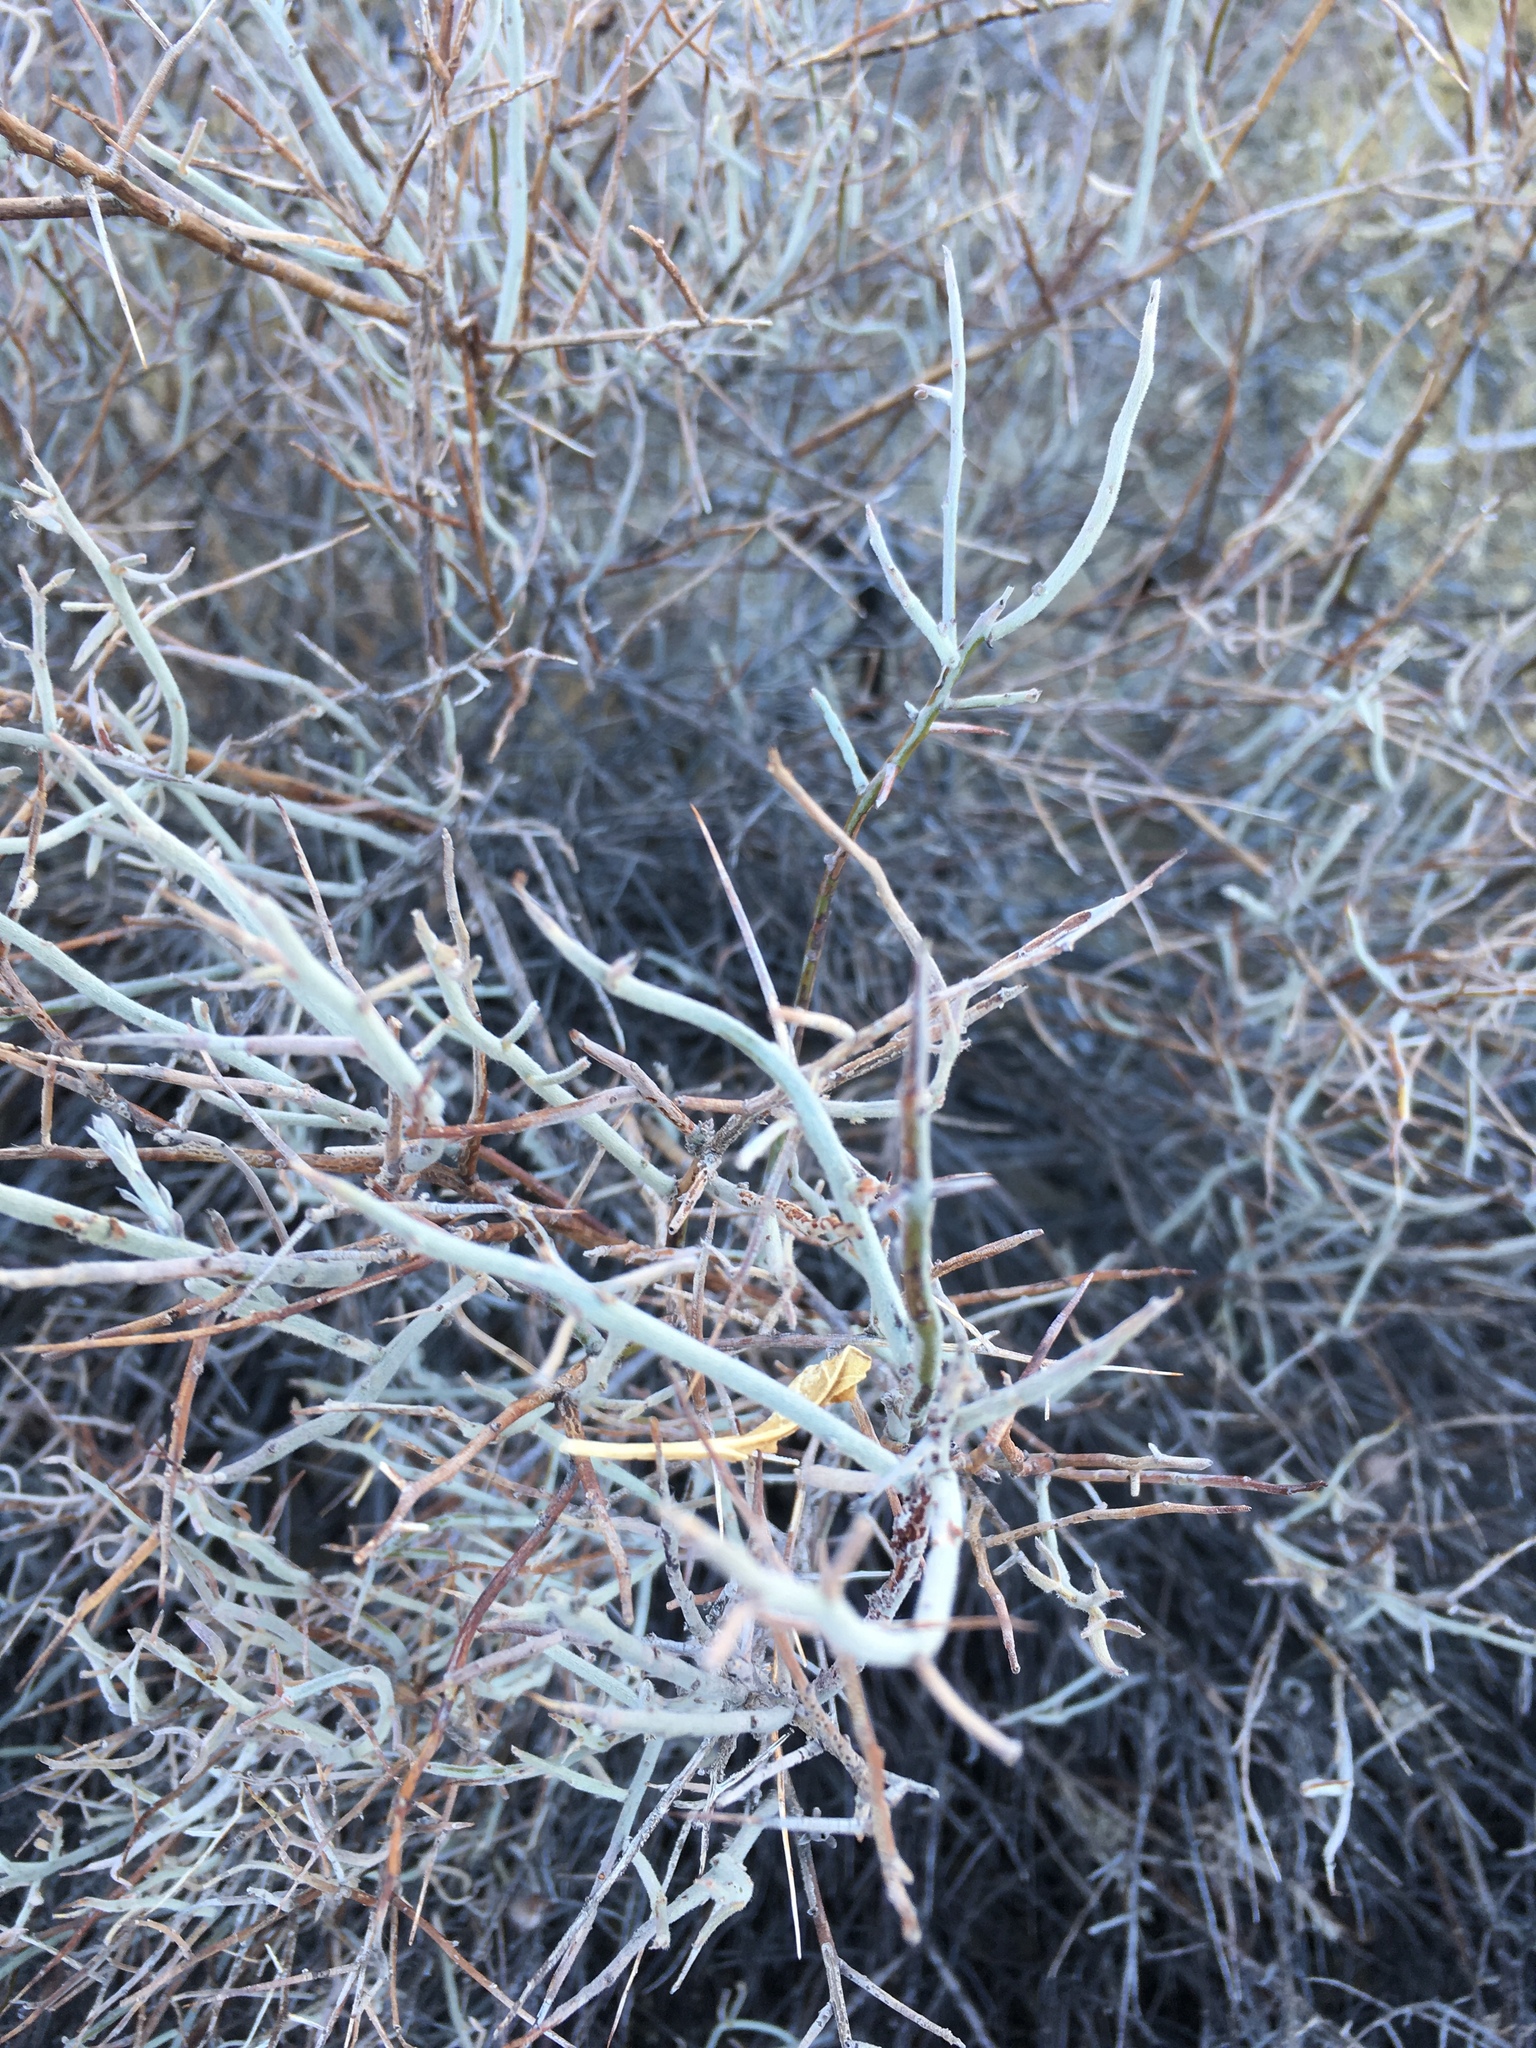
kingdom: Plantae
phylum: Tracheophyta
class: Magnoliopsida
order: Zygophyllales
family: Krameriaceae
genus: Krameria
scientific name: Krameria bicolor
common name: White ratany
